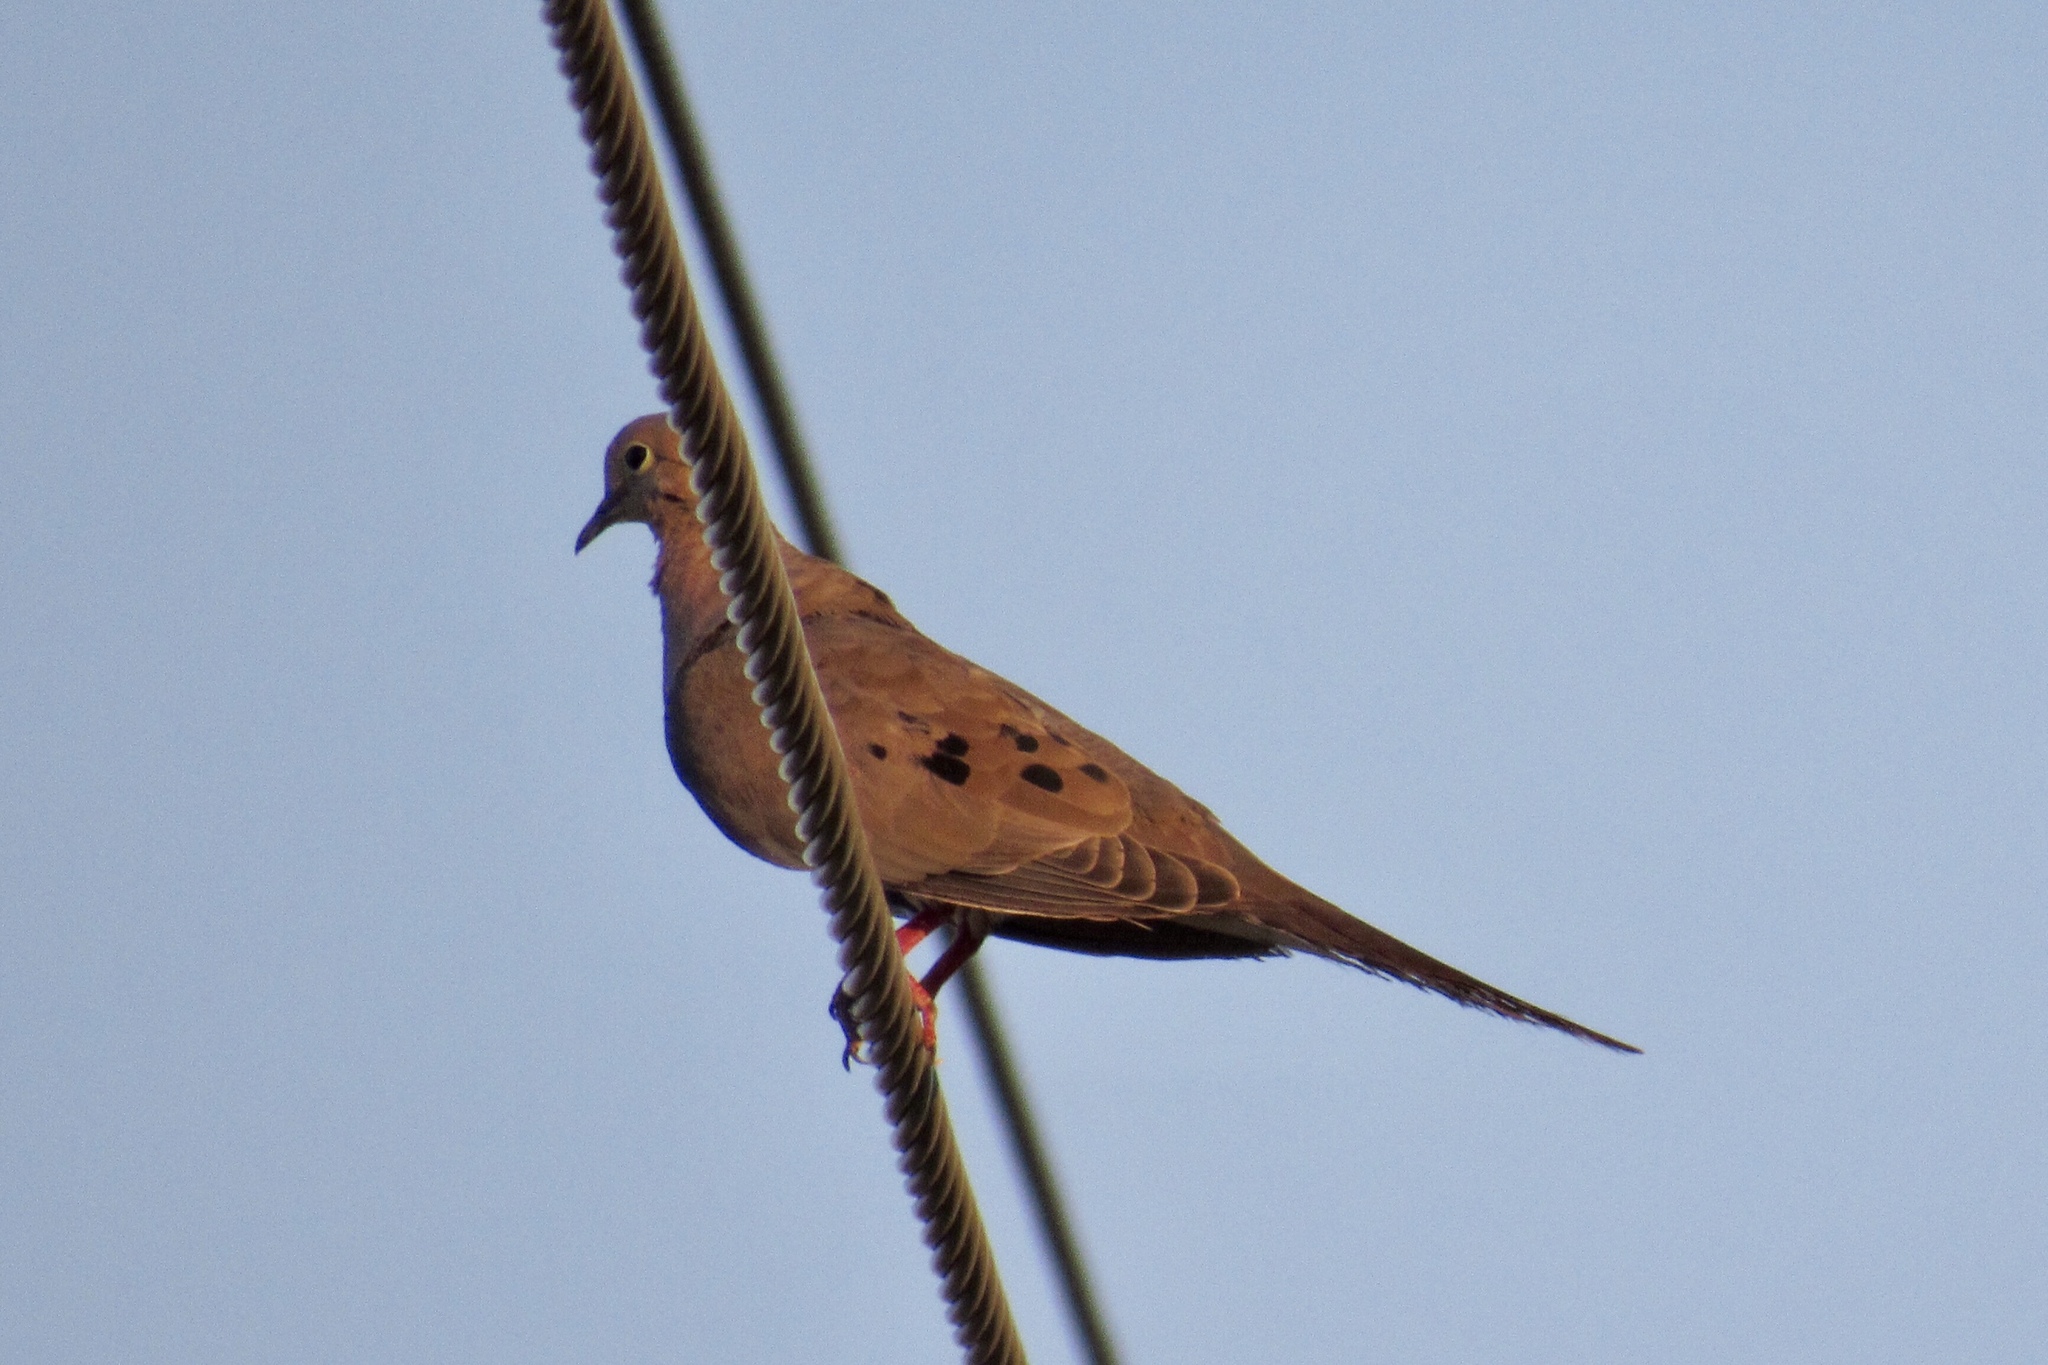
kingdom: Animalia
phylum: Chordata
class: Aves
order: Columbiformes
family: Columbidae
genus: Zenaida
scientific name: Zenaida macroura
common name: Mourning dove
